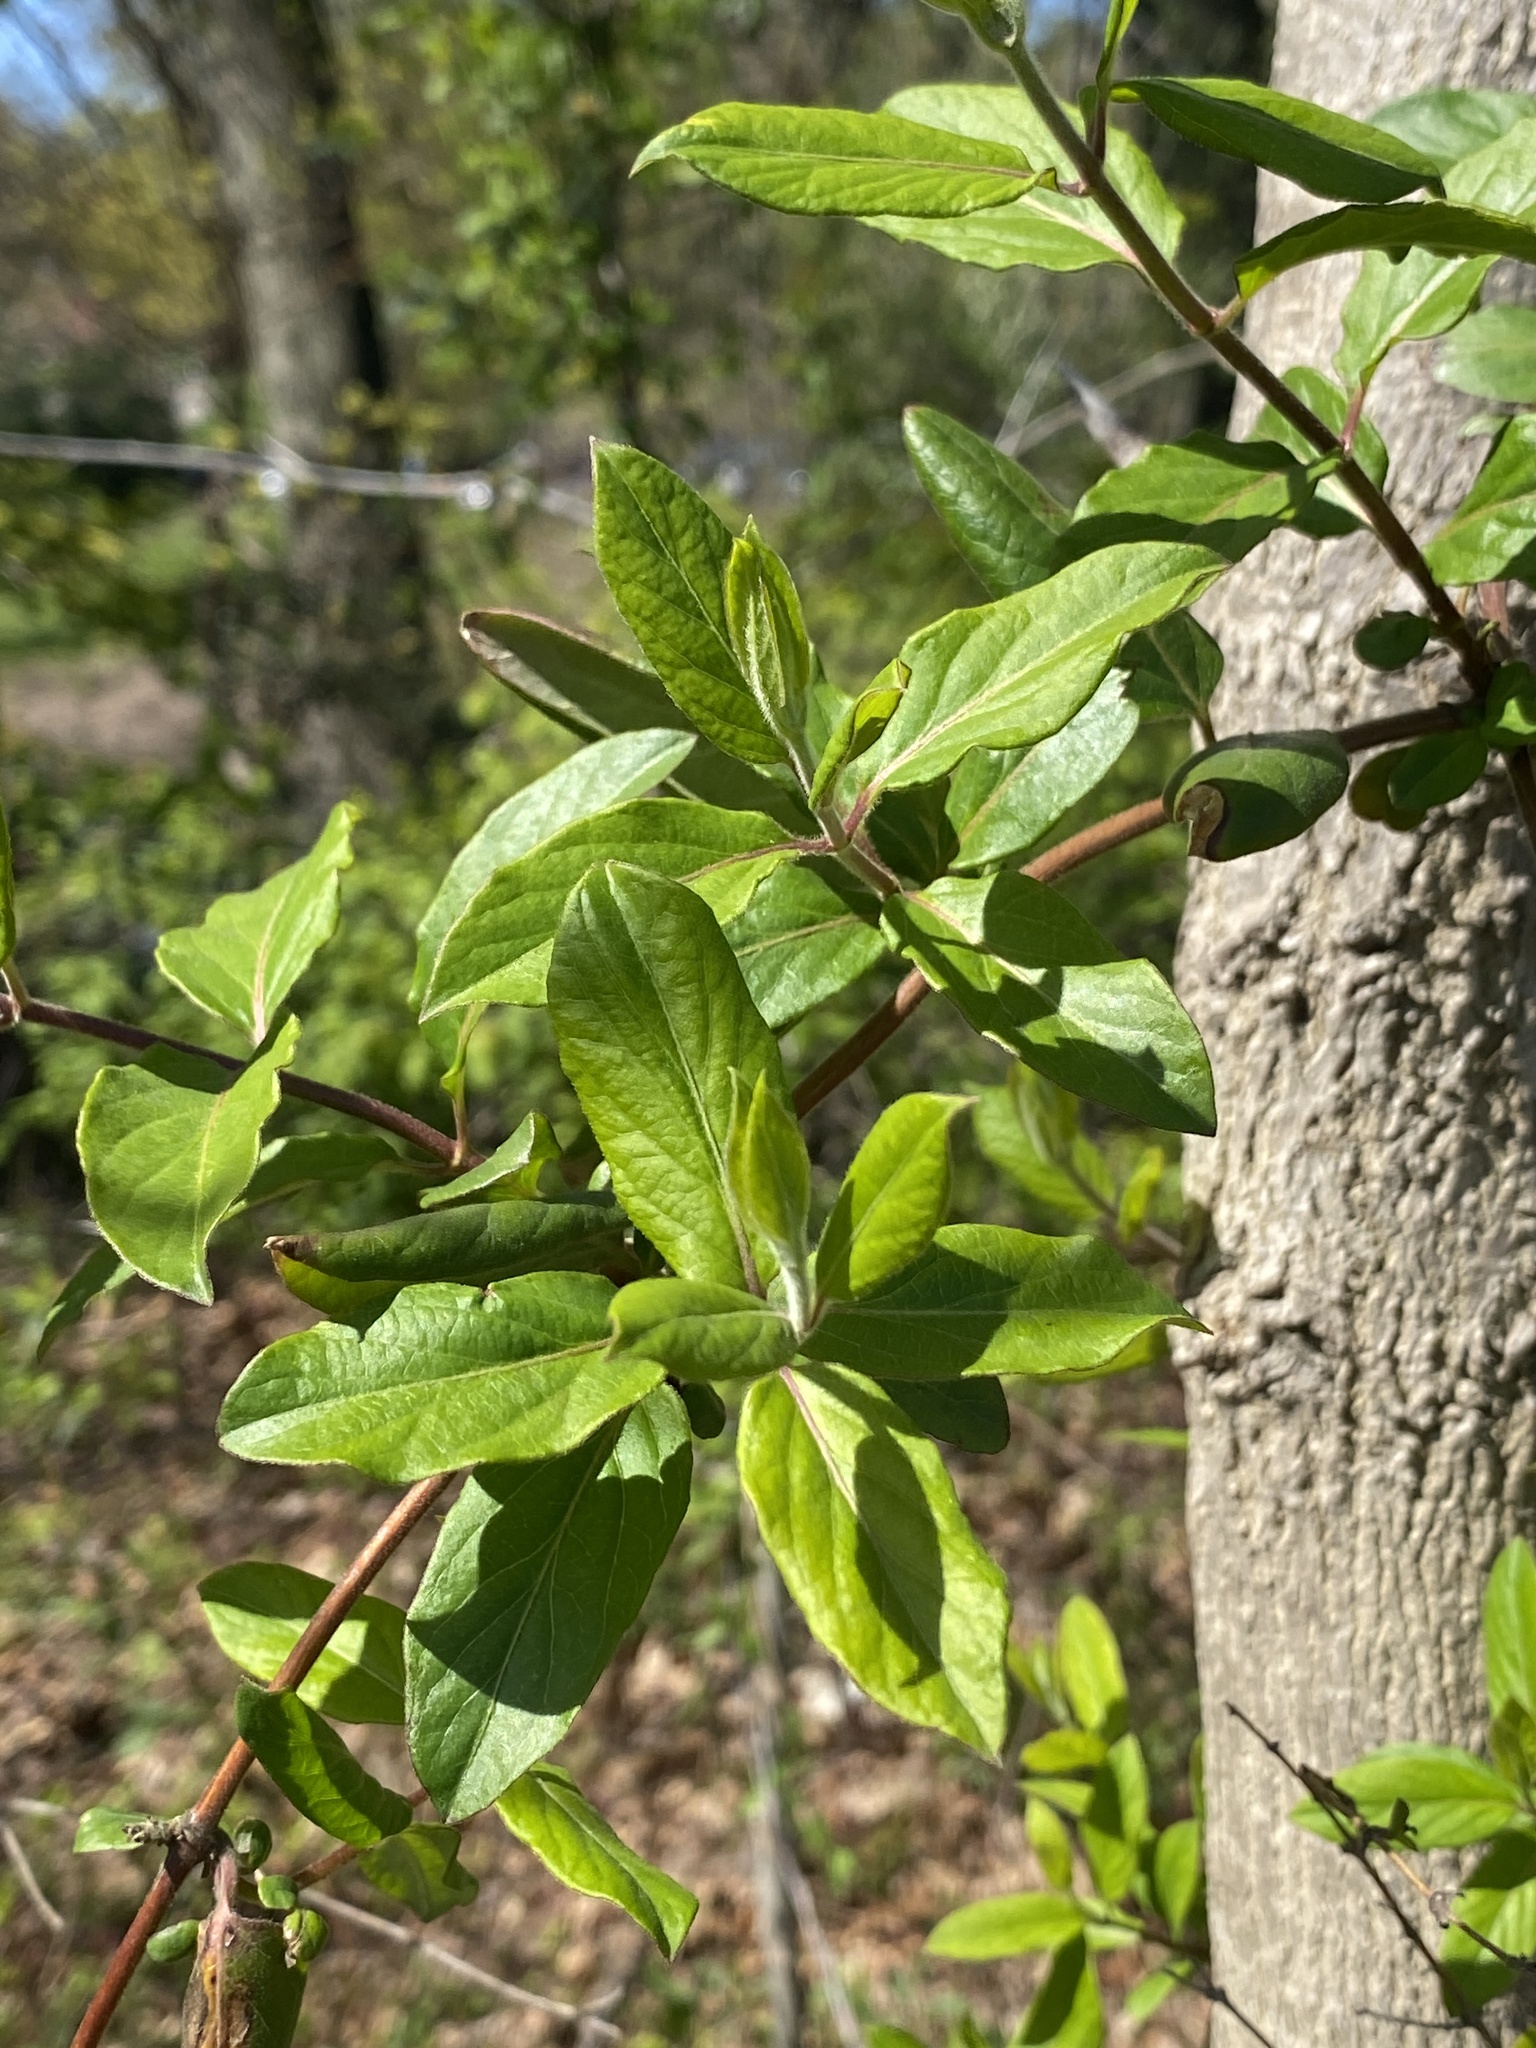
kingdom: Plantae
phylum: Tracheophyta
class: Magnoliopsida
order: Dipsacales
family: Caprifoliaceae
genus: Lonicera
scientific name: Lonicera japonica
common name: Japanese honeysuckle
